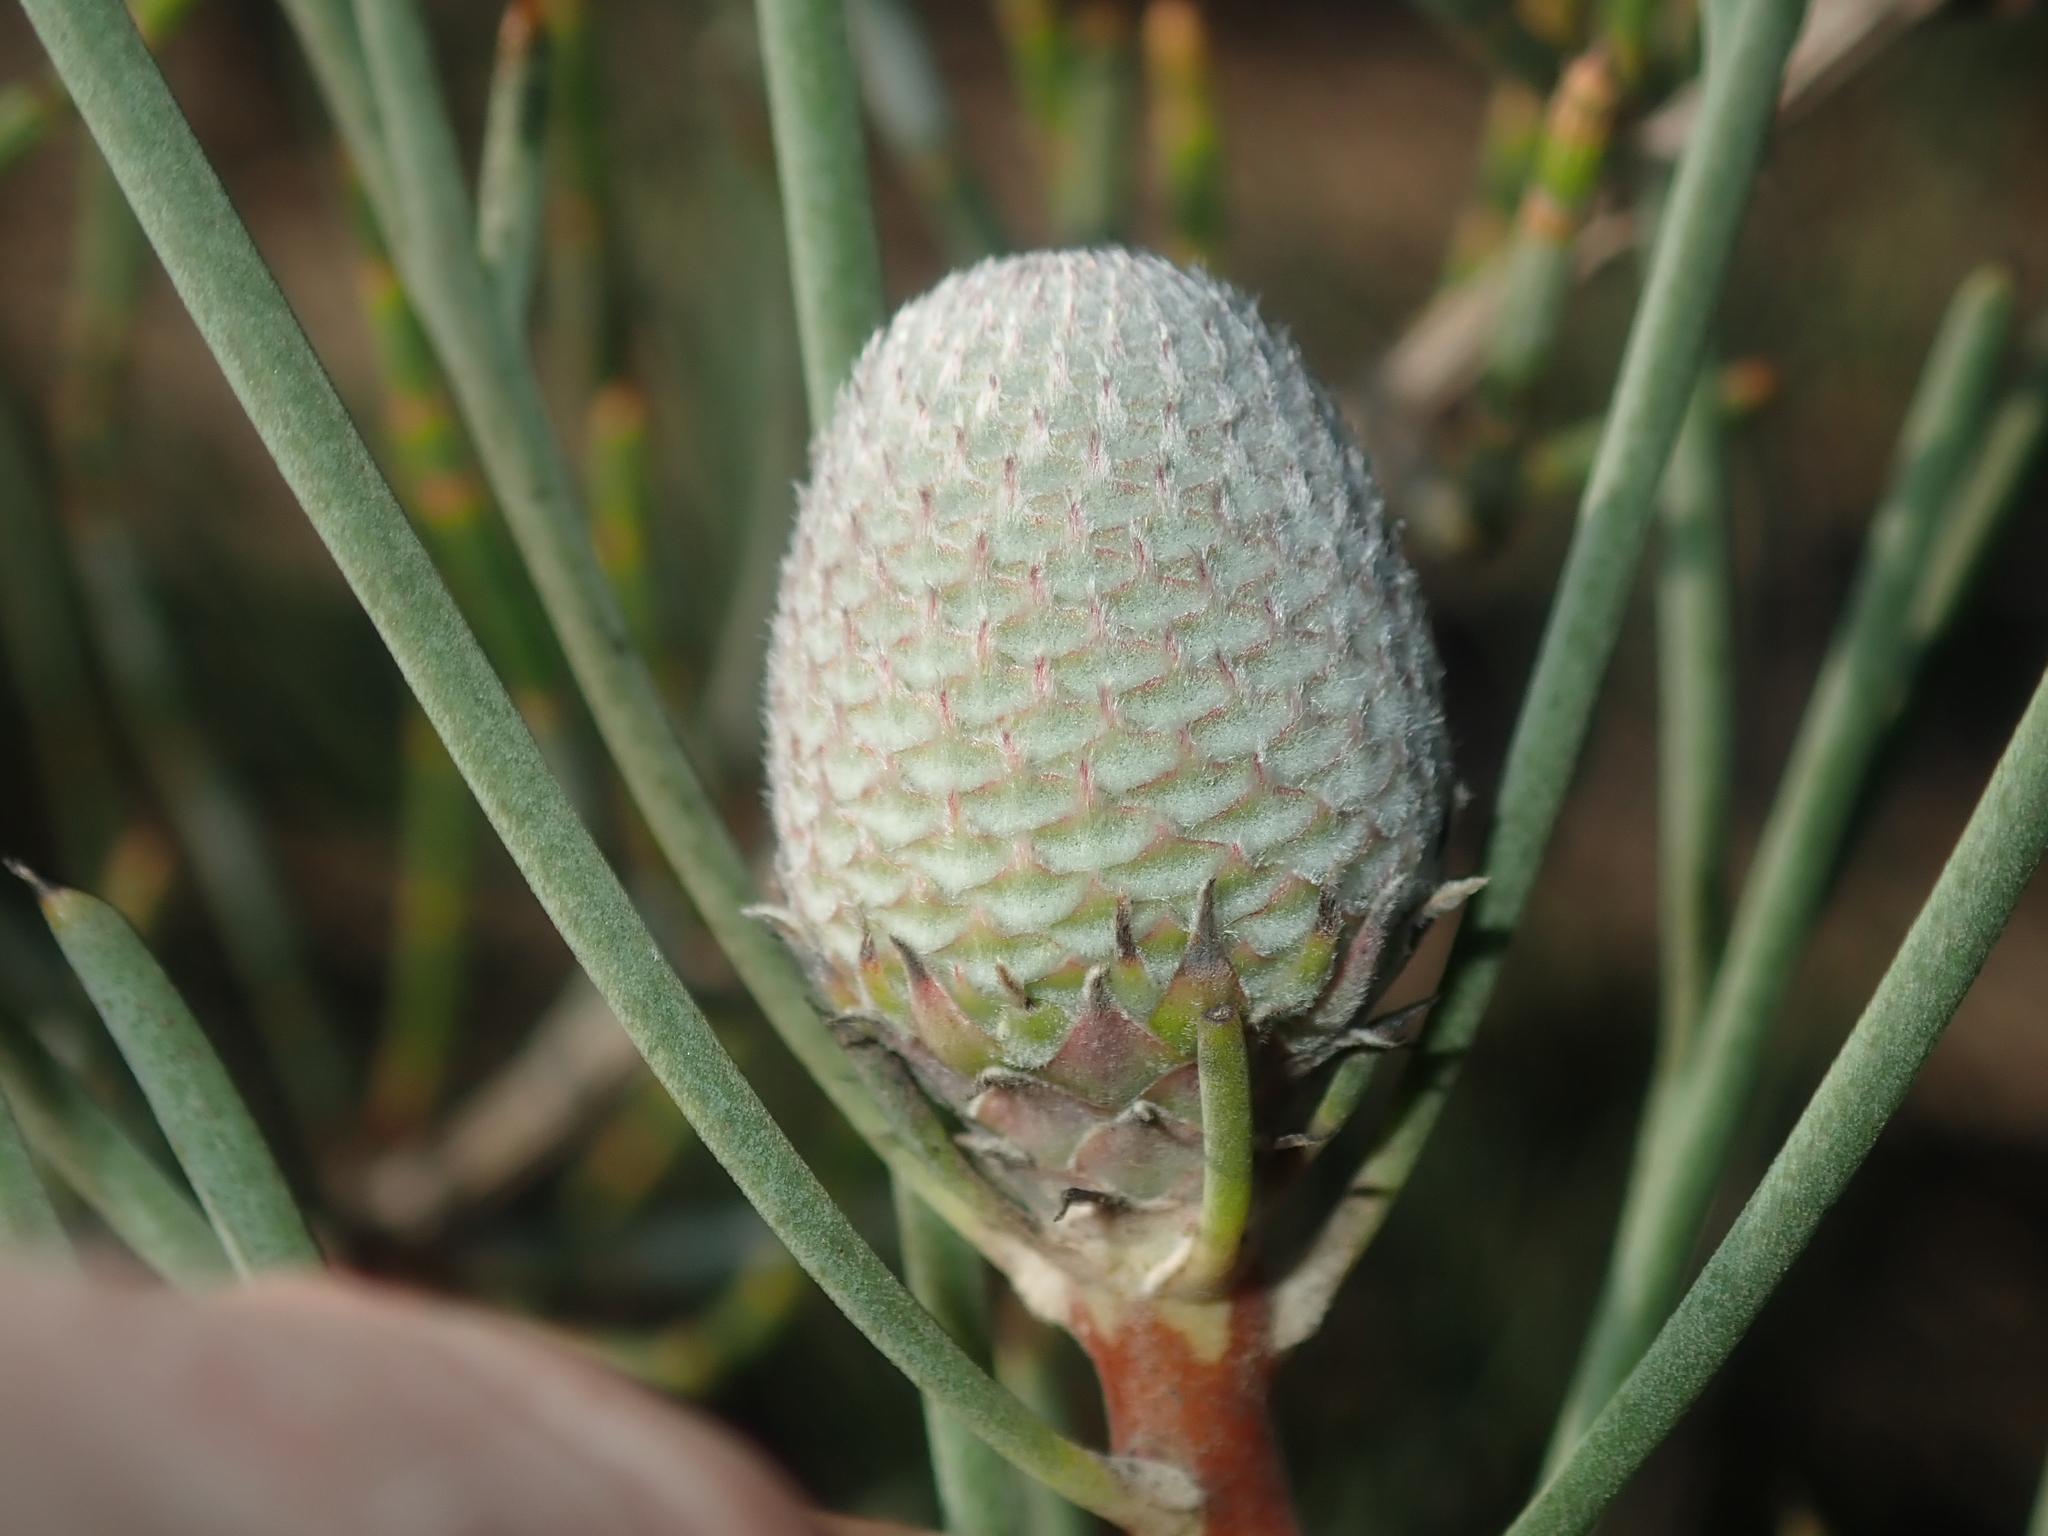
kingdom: Plantae
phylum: Tracheophyta
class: Magnoliopsida
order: Proteales
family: Proteaceae
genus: Isopogon
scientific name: Isopogon divergens
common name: Spreading-coneflower
